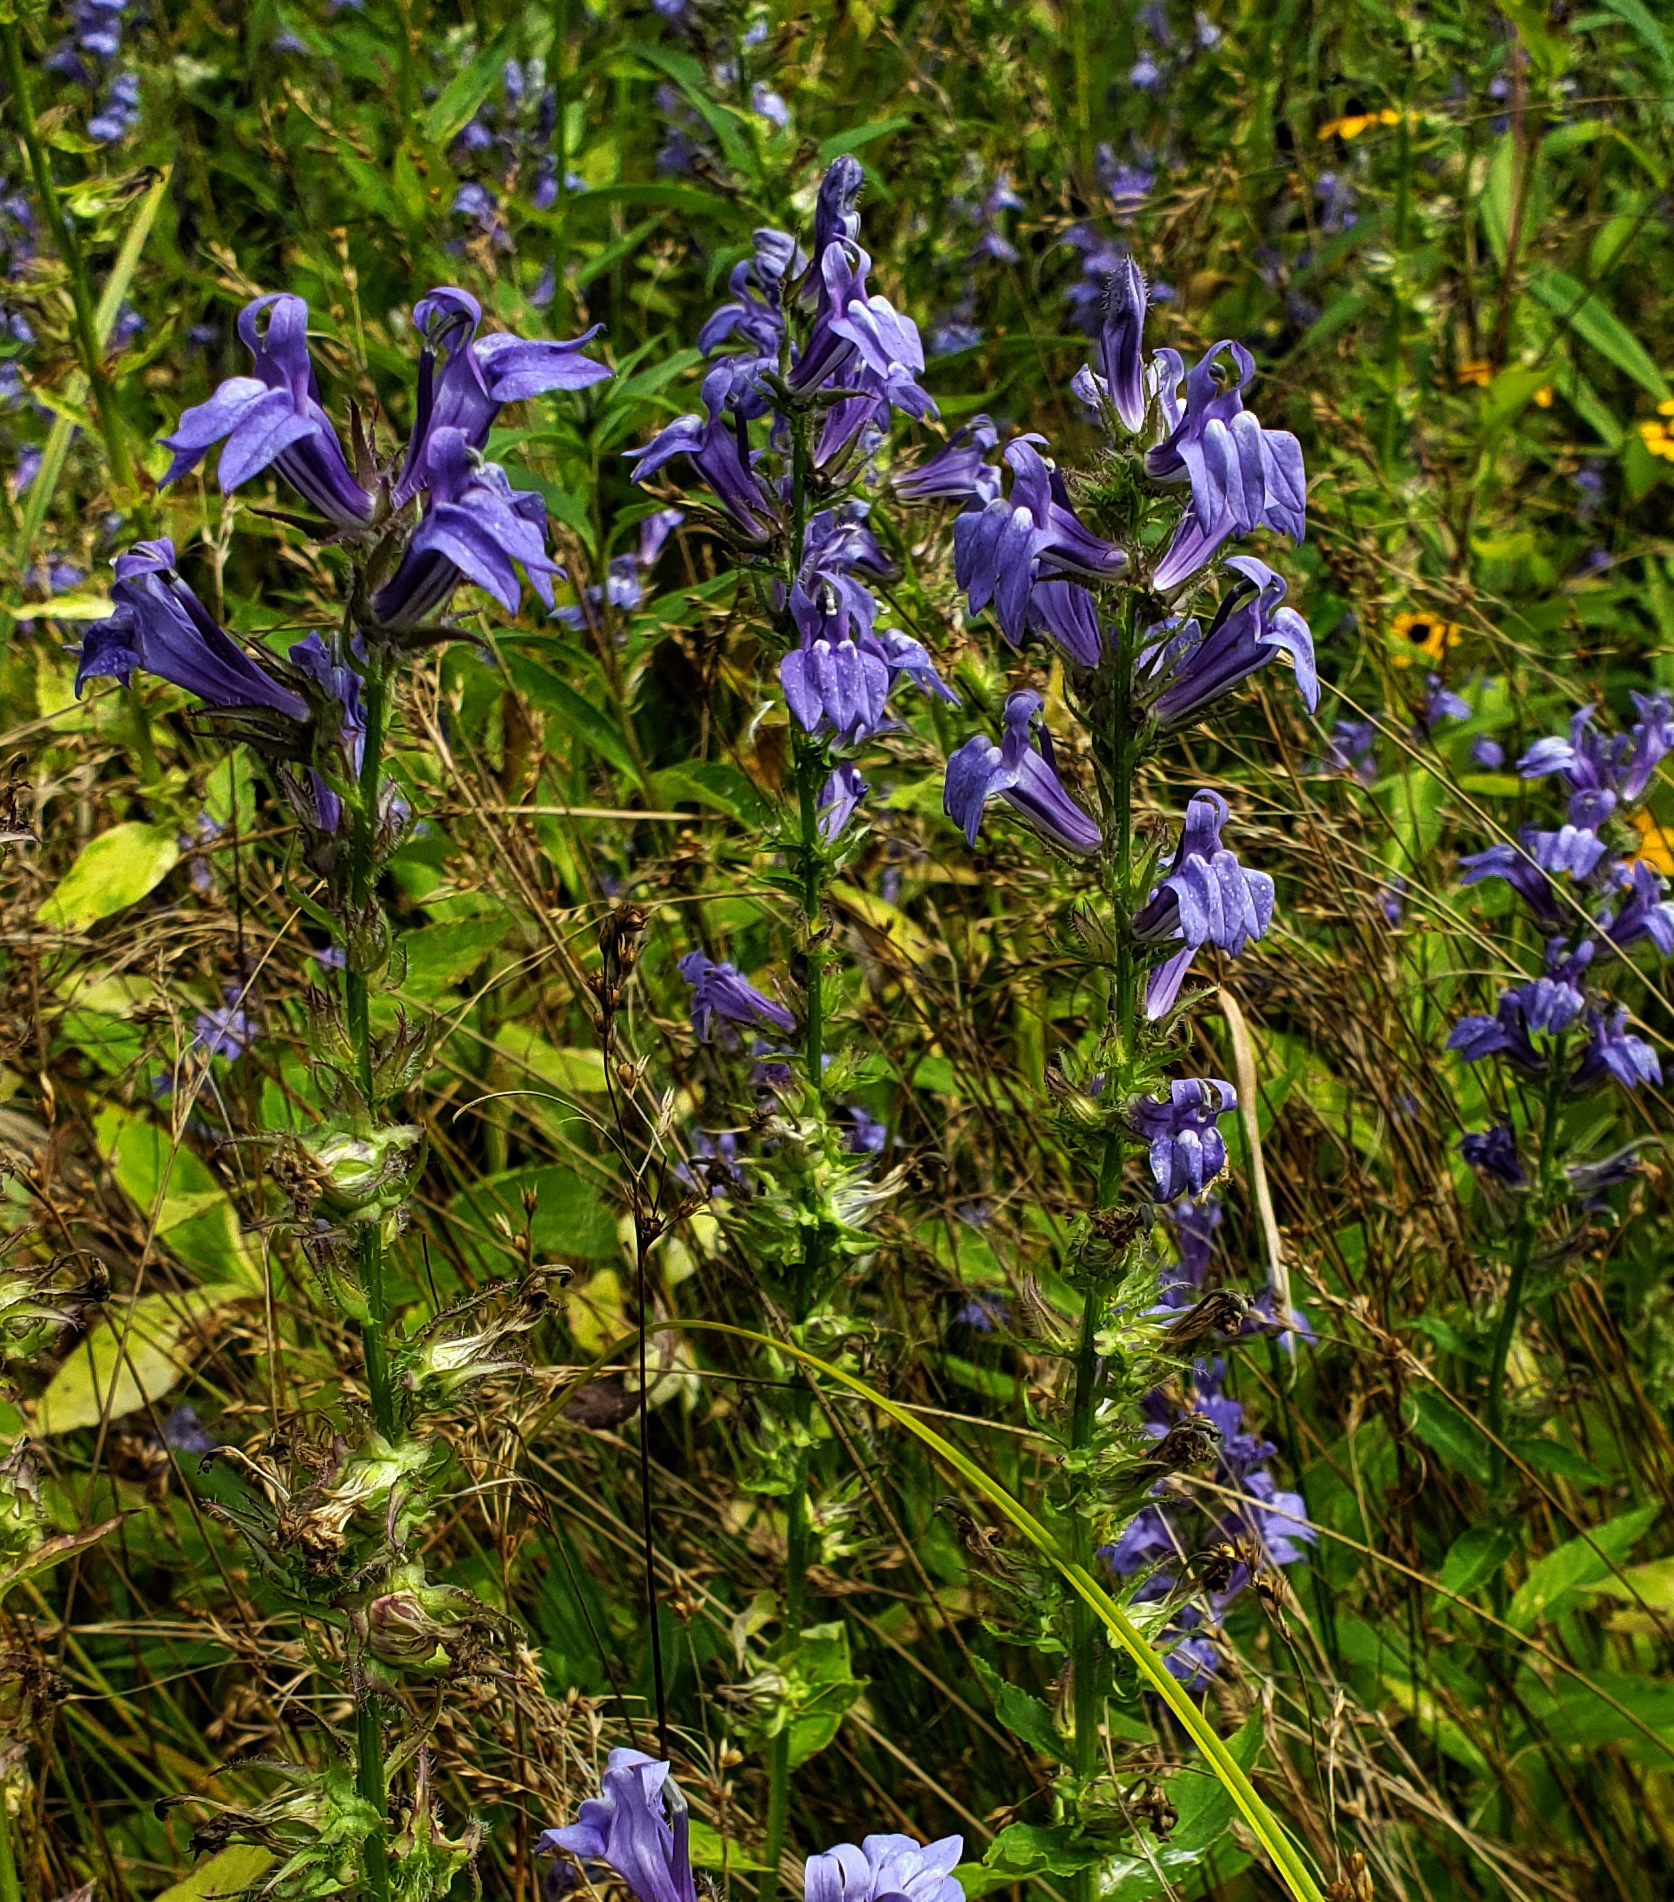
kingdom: Plantae
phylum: Tracheophyta
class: Magnoliopsida
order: Asterales
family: Campanulaceae
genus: Lobelia
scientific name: Lobelia siphilitica
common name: Great lobelia
